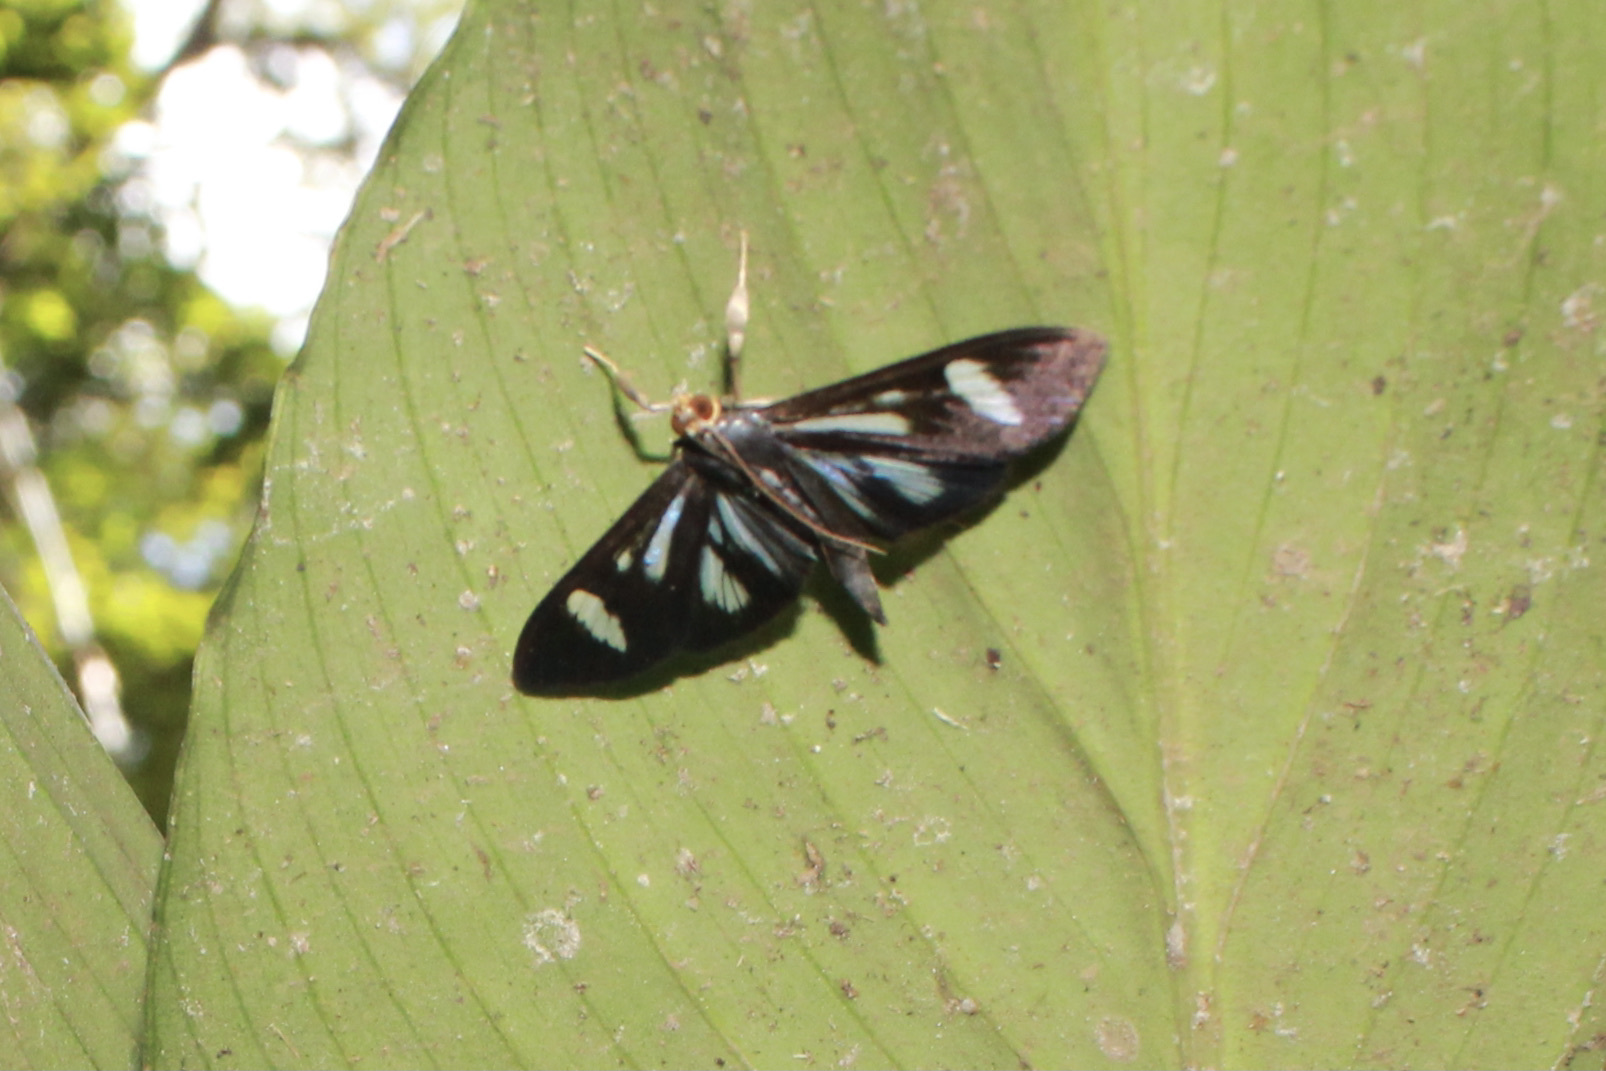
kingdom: Animalia
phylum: Arthropoda
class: Insecta
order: Lepidoptera
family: Crambidae
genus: Phostria
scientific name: Phostria euagra
